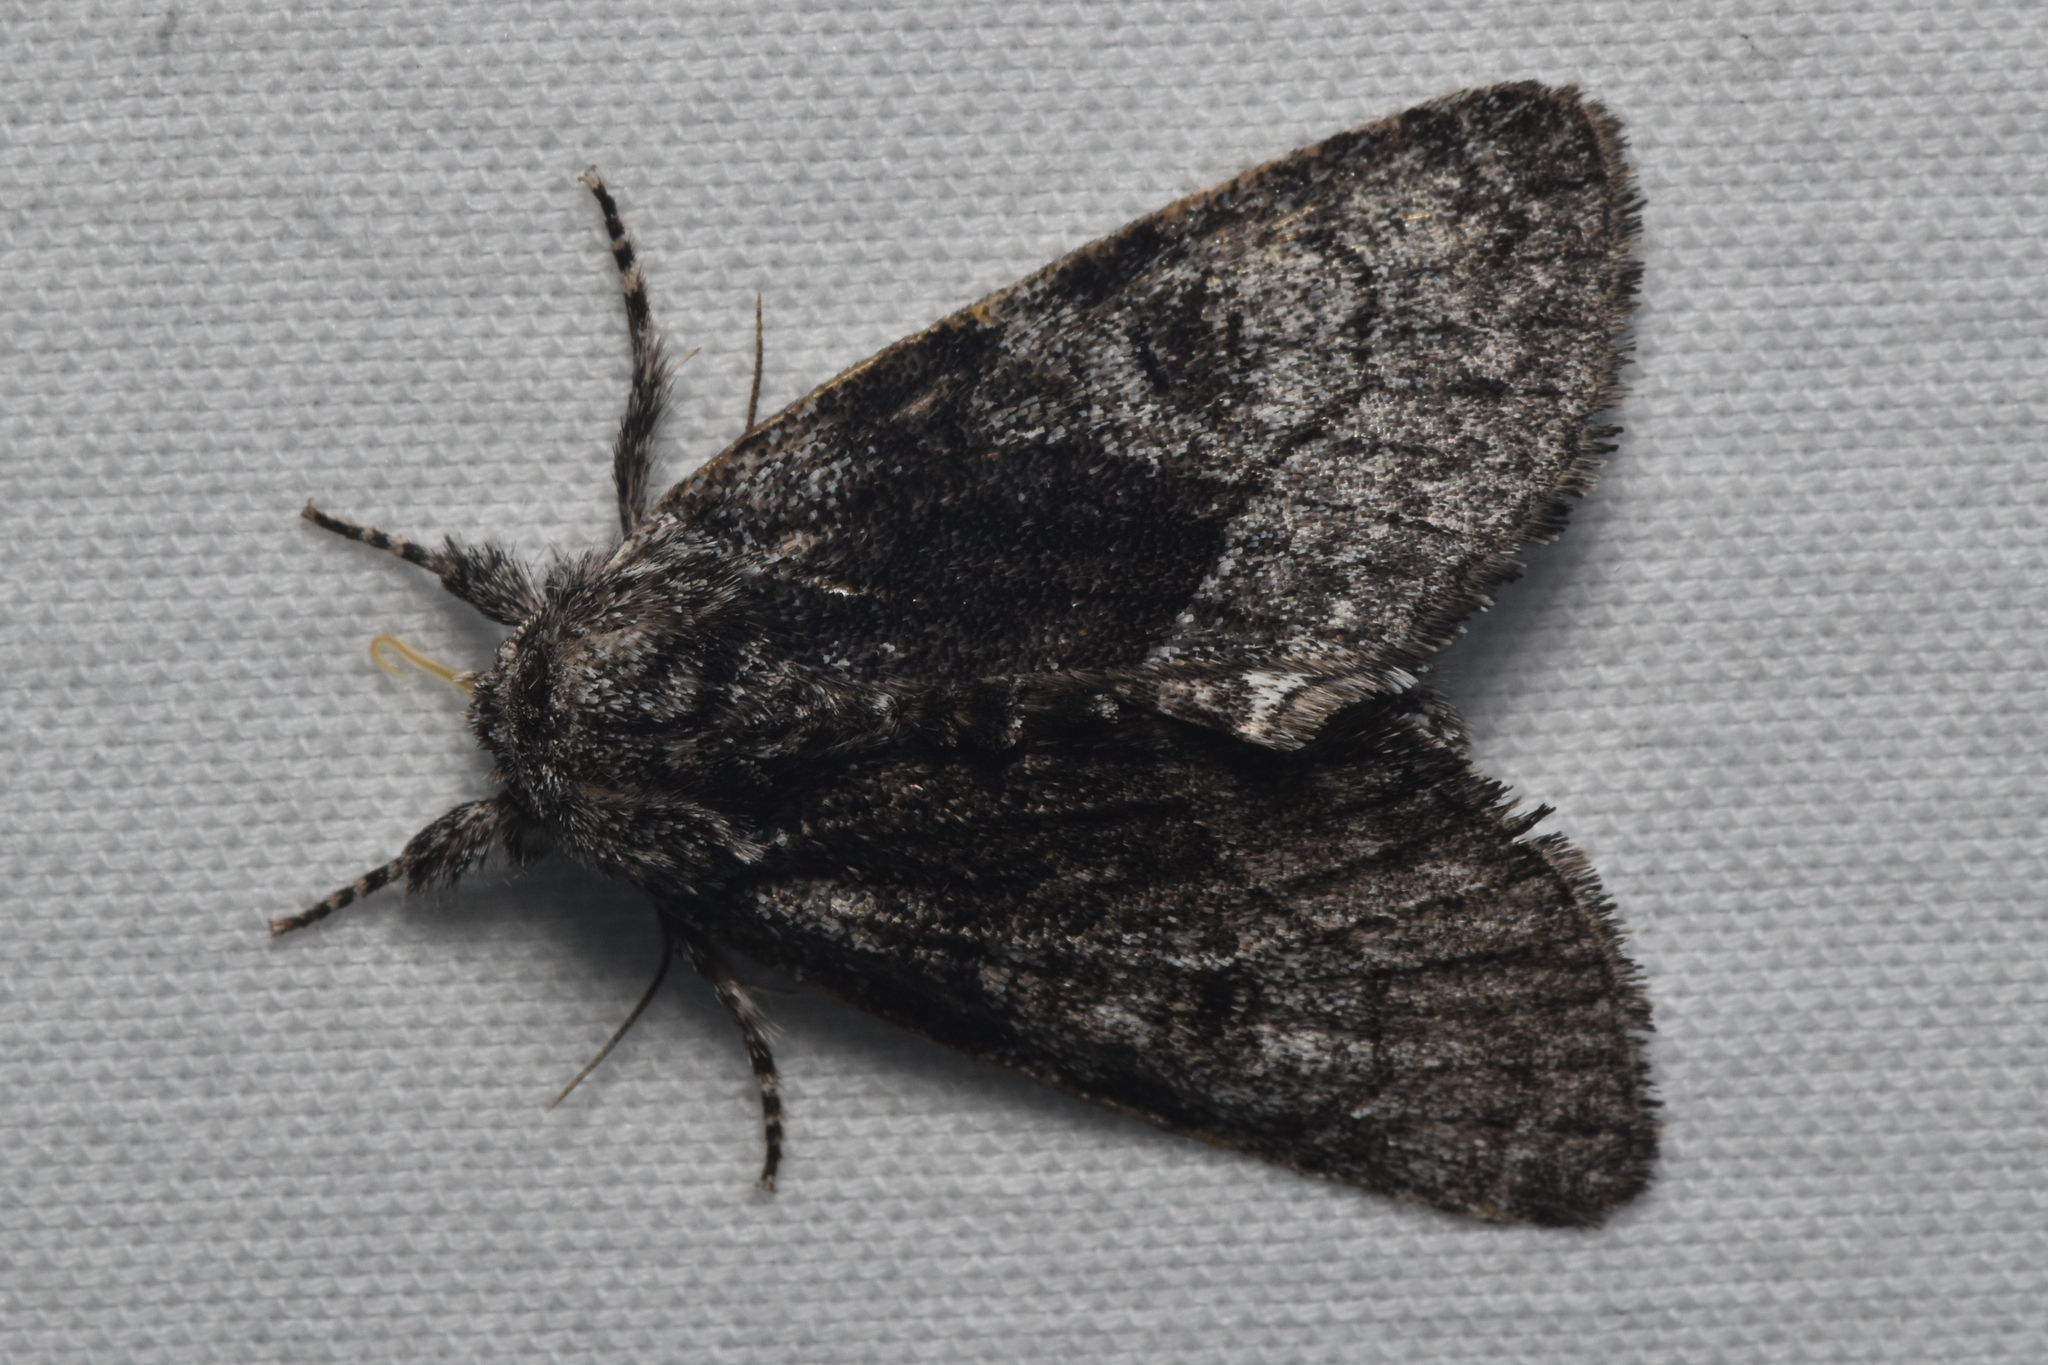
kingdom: Animalia
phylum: Arthropoda
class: Insecta
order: Lepidoptera
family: Noctuidae
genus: Raphia
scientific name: Raphia frater
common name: Brother
